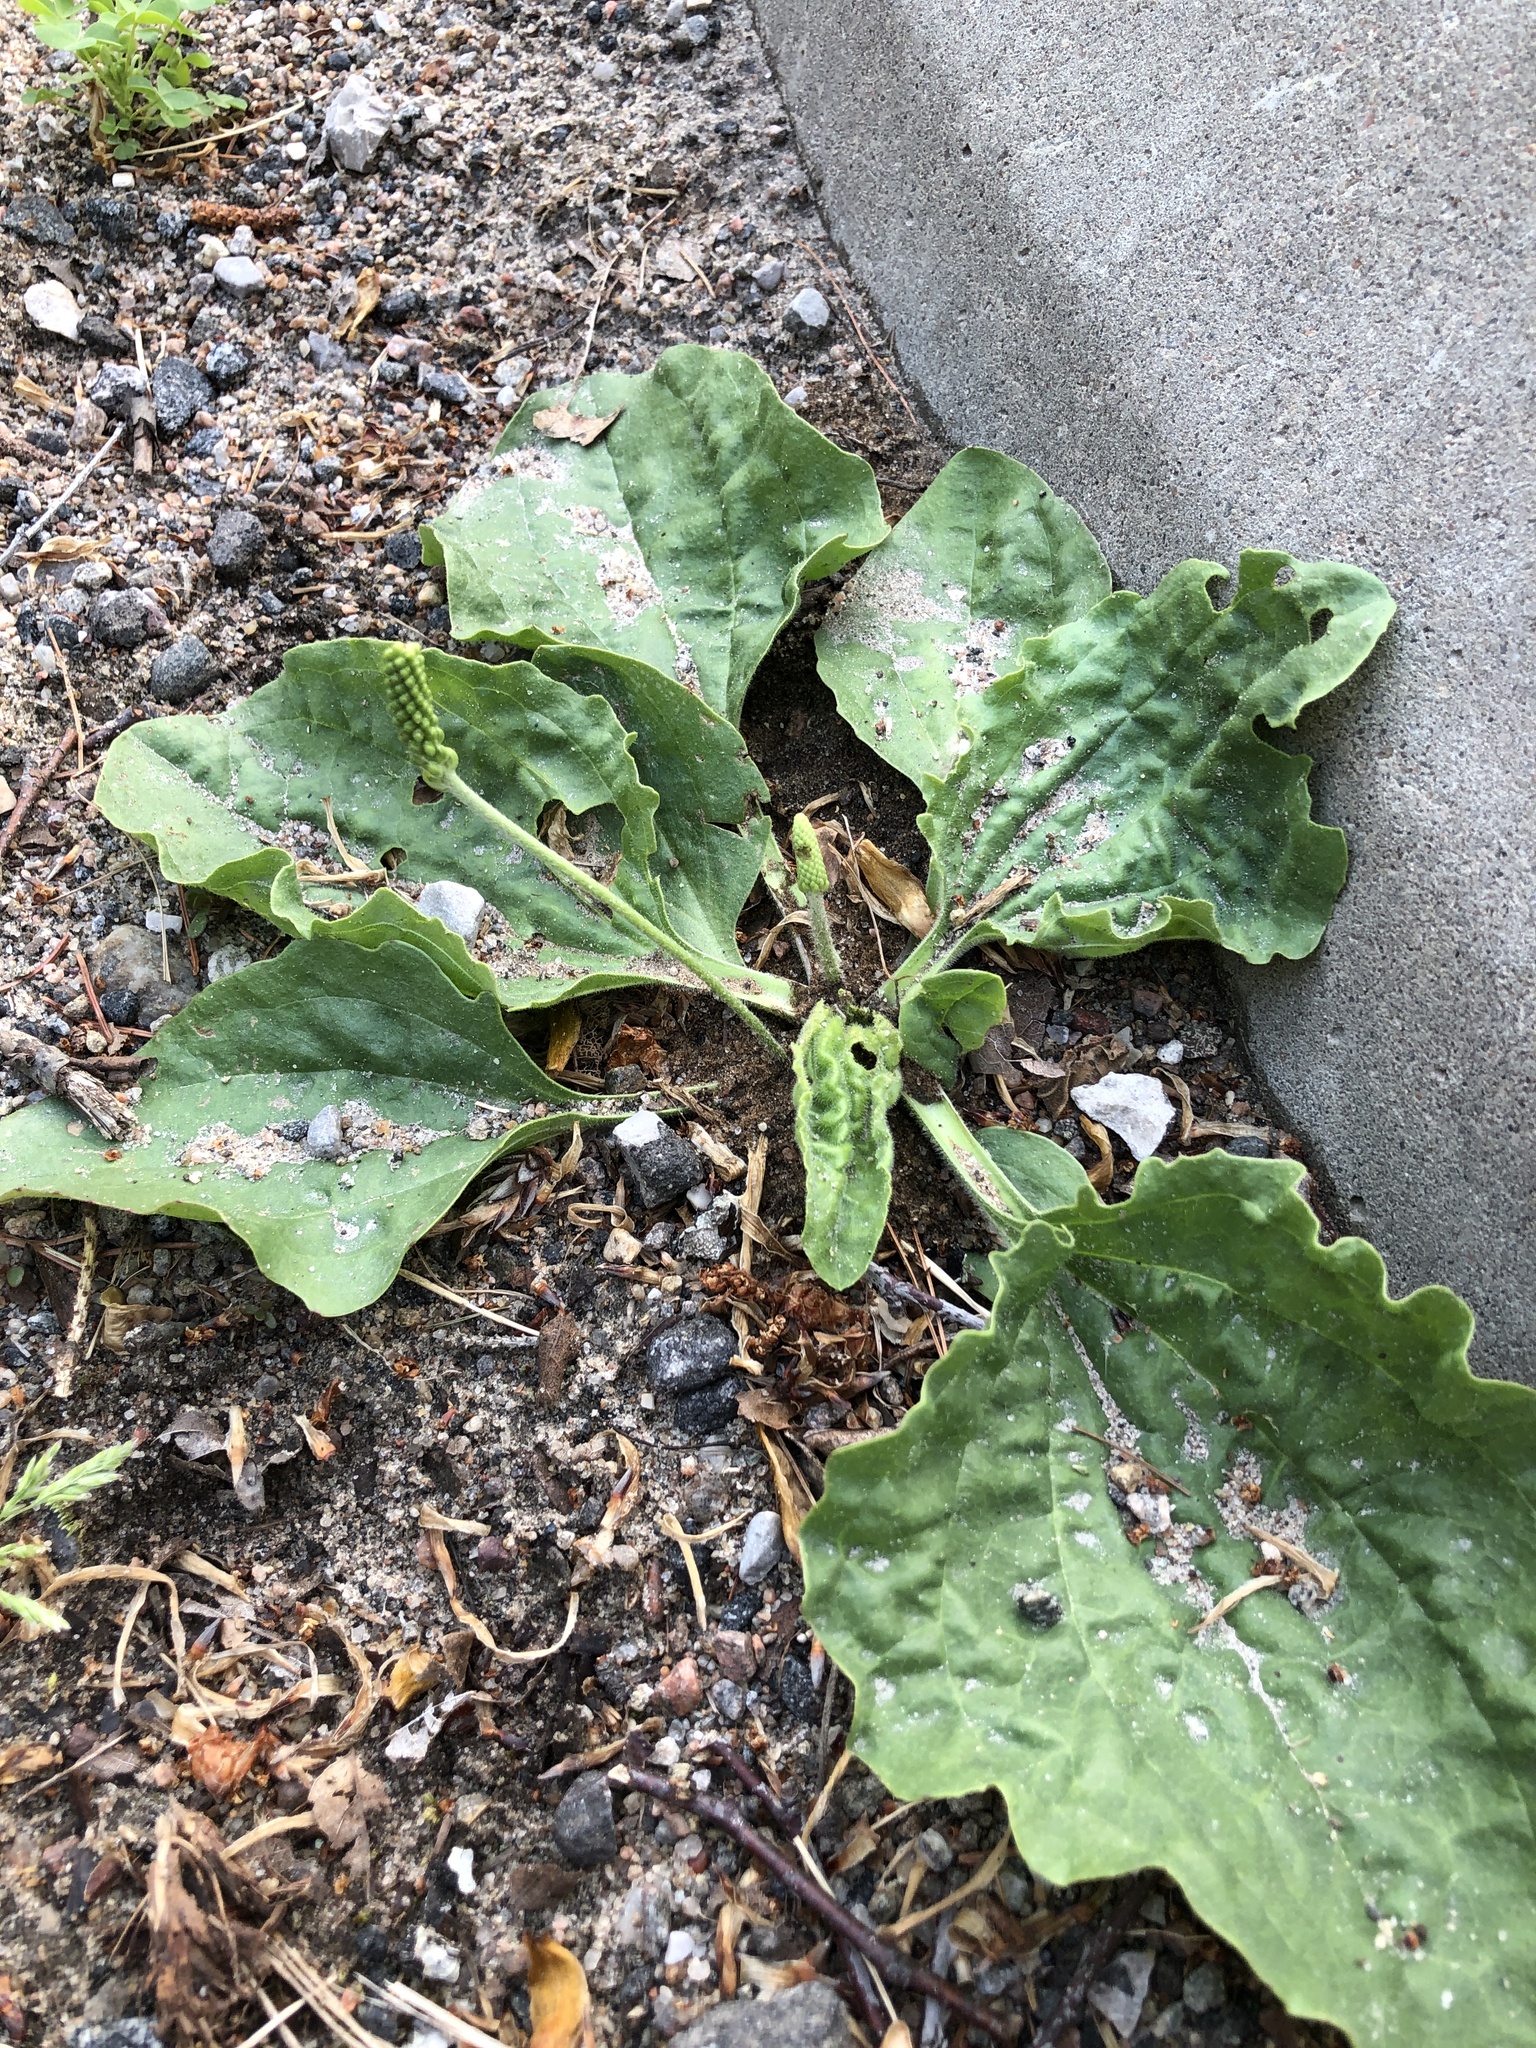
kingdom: Plantae
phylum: Tracheophyta
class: Magnoliopsida
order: Lamiales
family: Plantaginaceae
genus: Plantago
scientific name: Plantago major
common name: Common plantain
